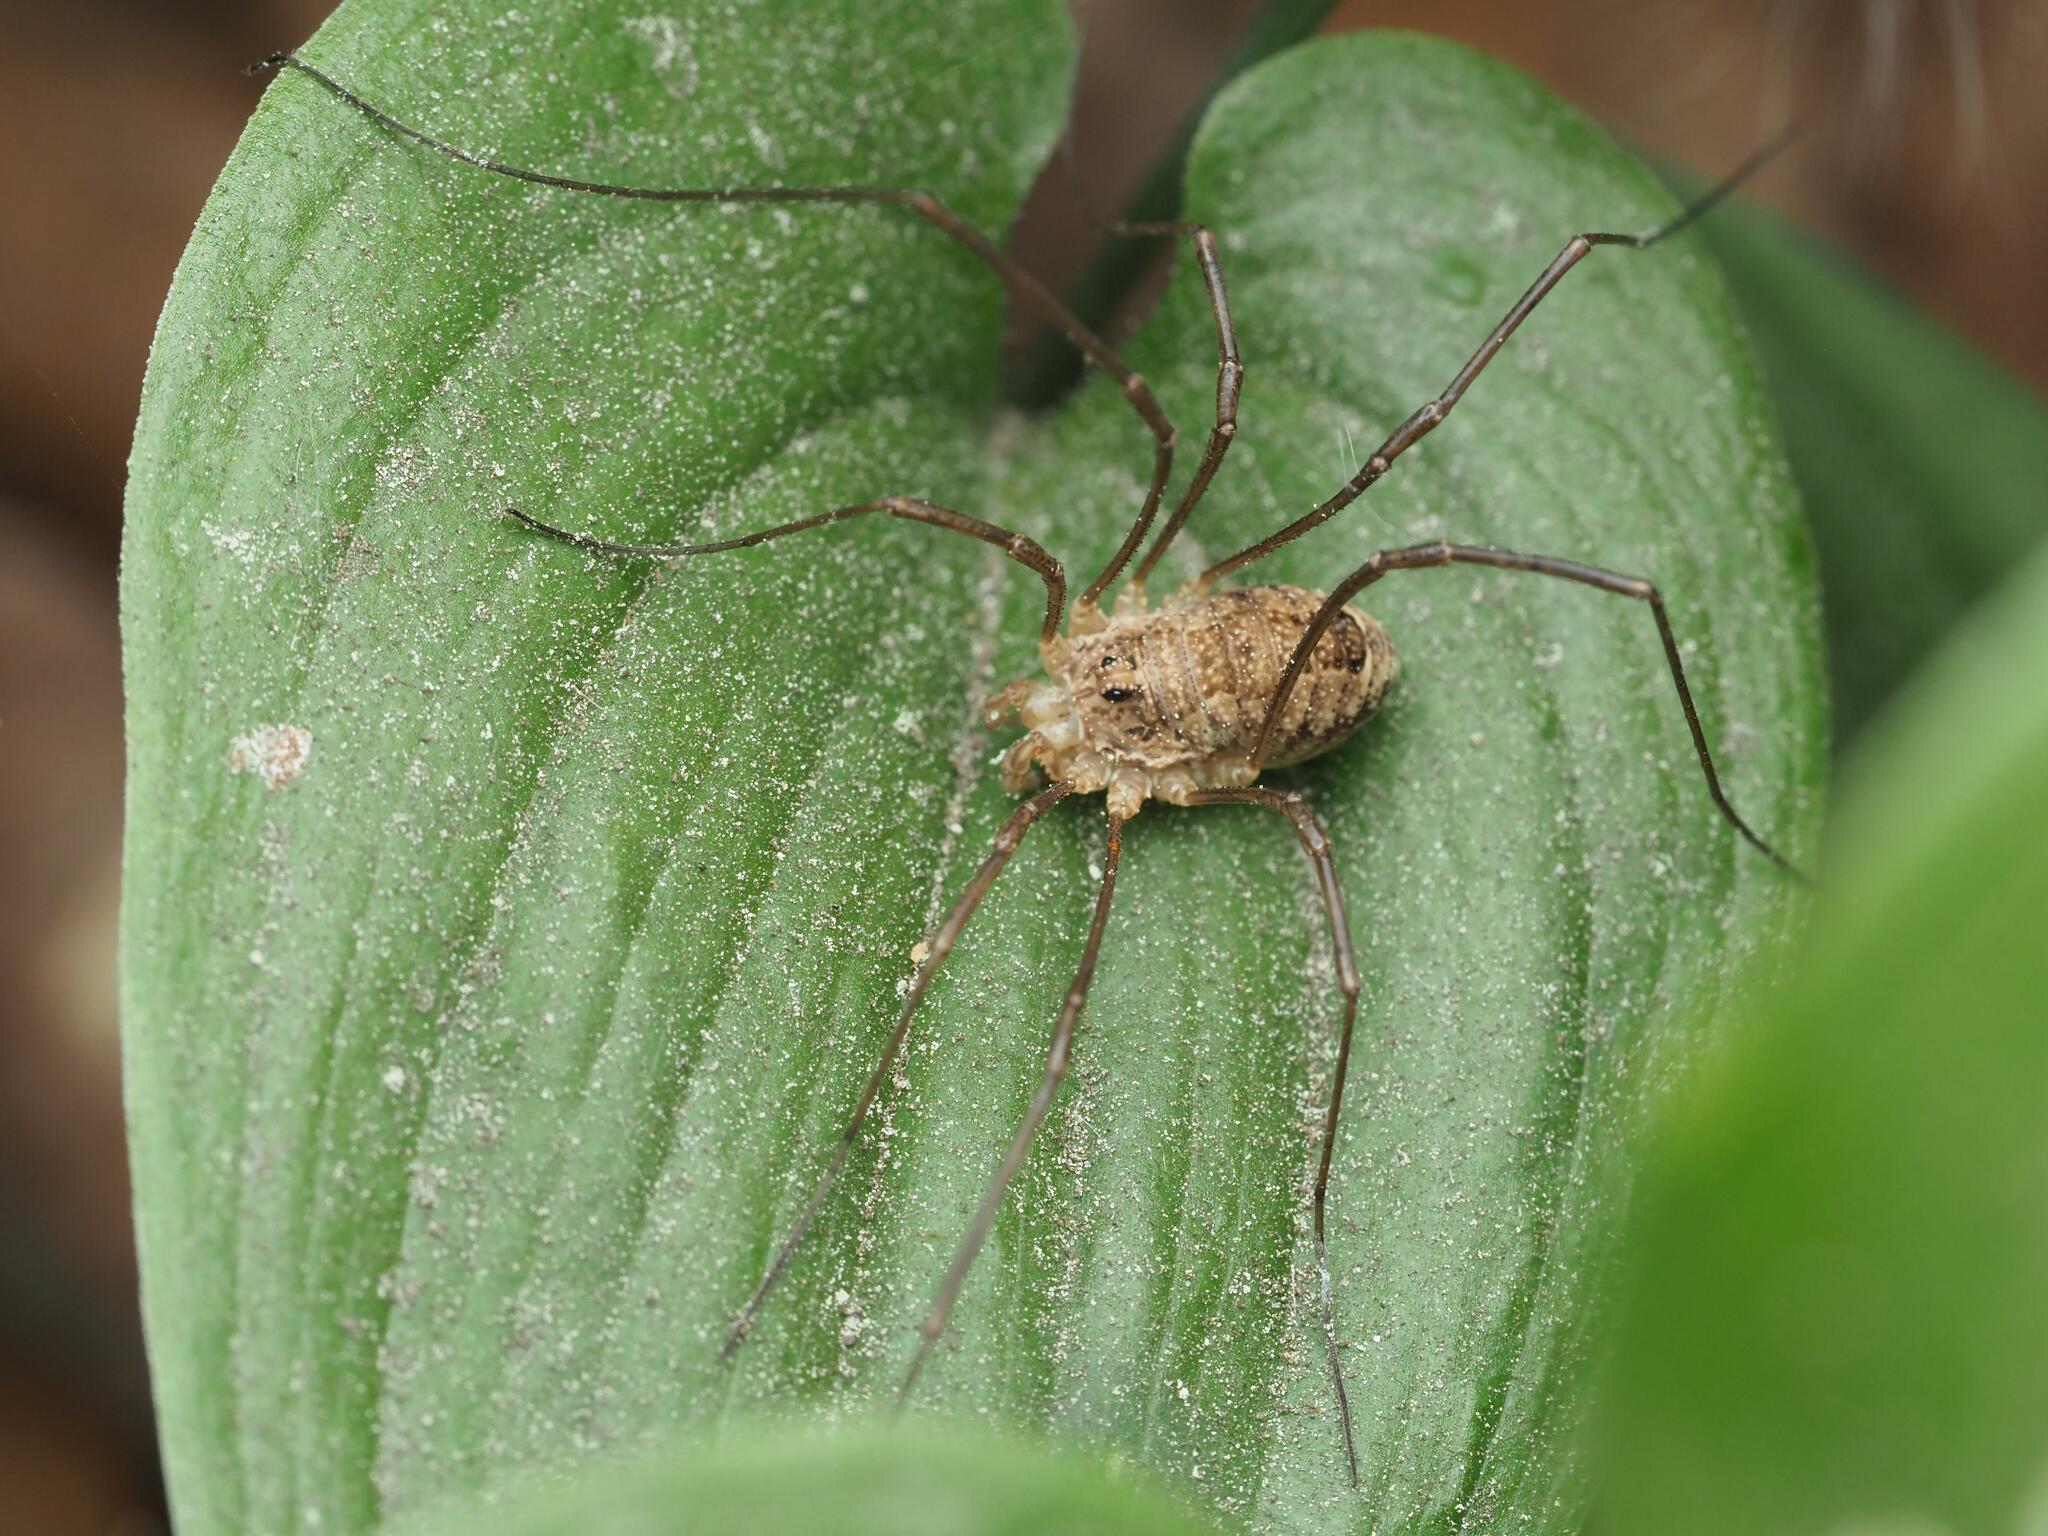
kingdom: Animalia
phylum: Arthropoda
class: Arachnida
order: Opiliones
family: Phalangiidae
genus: Rilaena
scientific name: Rilaena triangularis
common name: Spring harvestman
